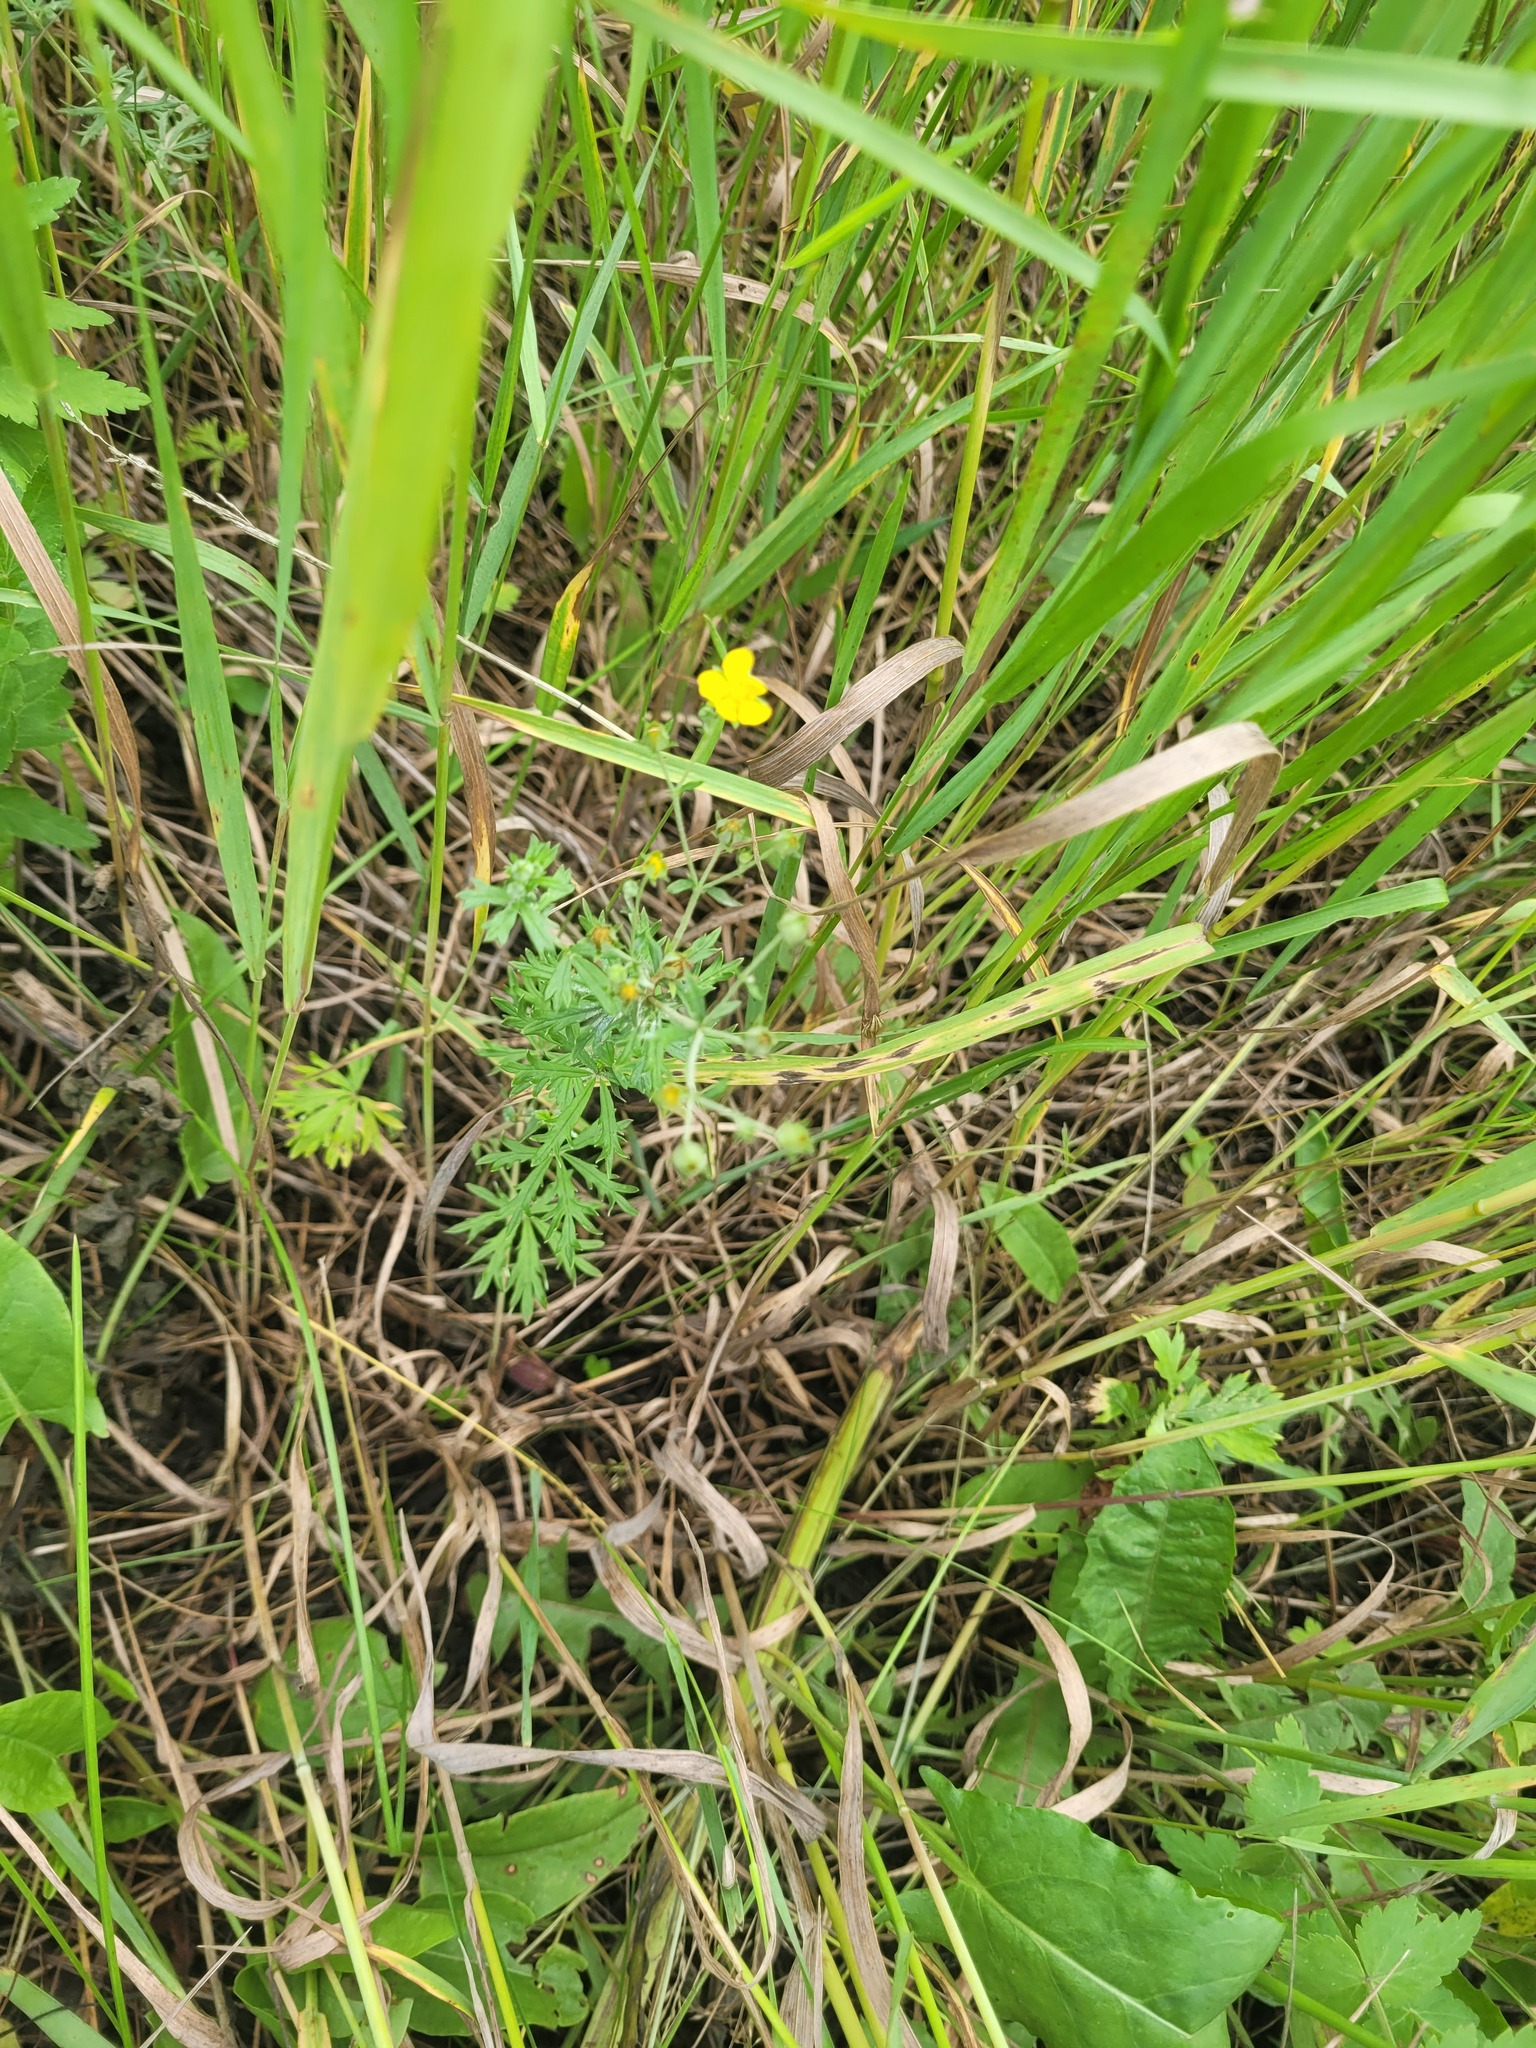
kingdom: Plantae
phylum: Tracheophyta
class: Magnoliopsida
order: Rosales
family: Rosaceae
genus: Potentilla
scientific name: Potentilla argentea
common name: Hoary cinquefoil
